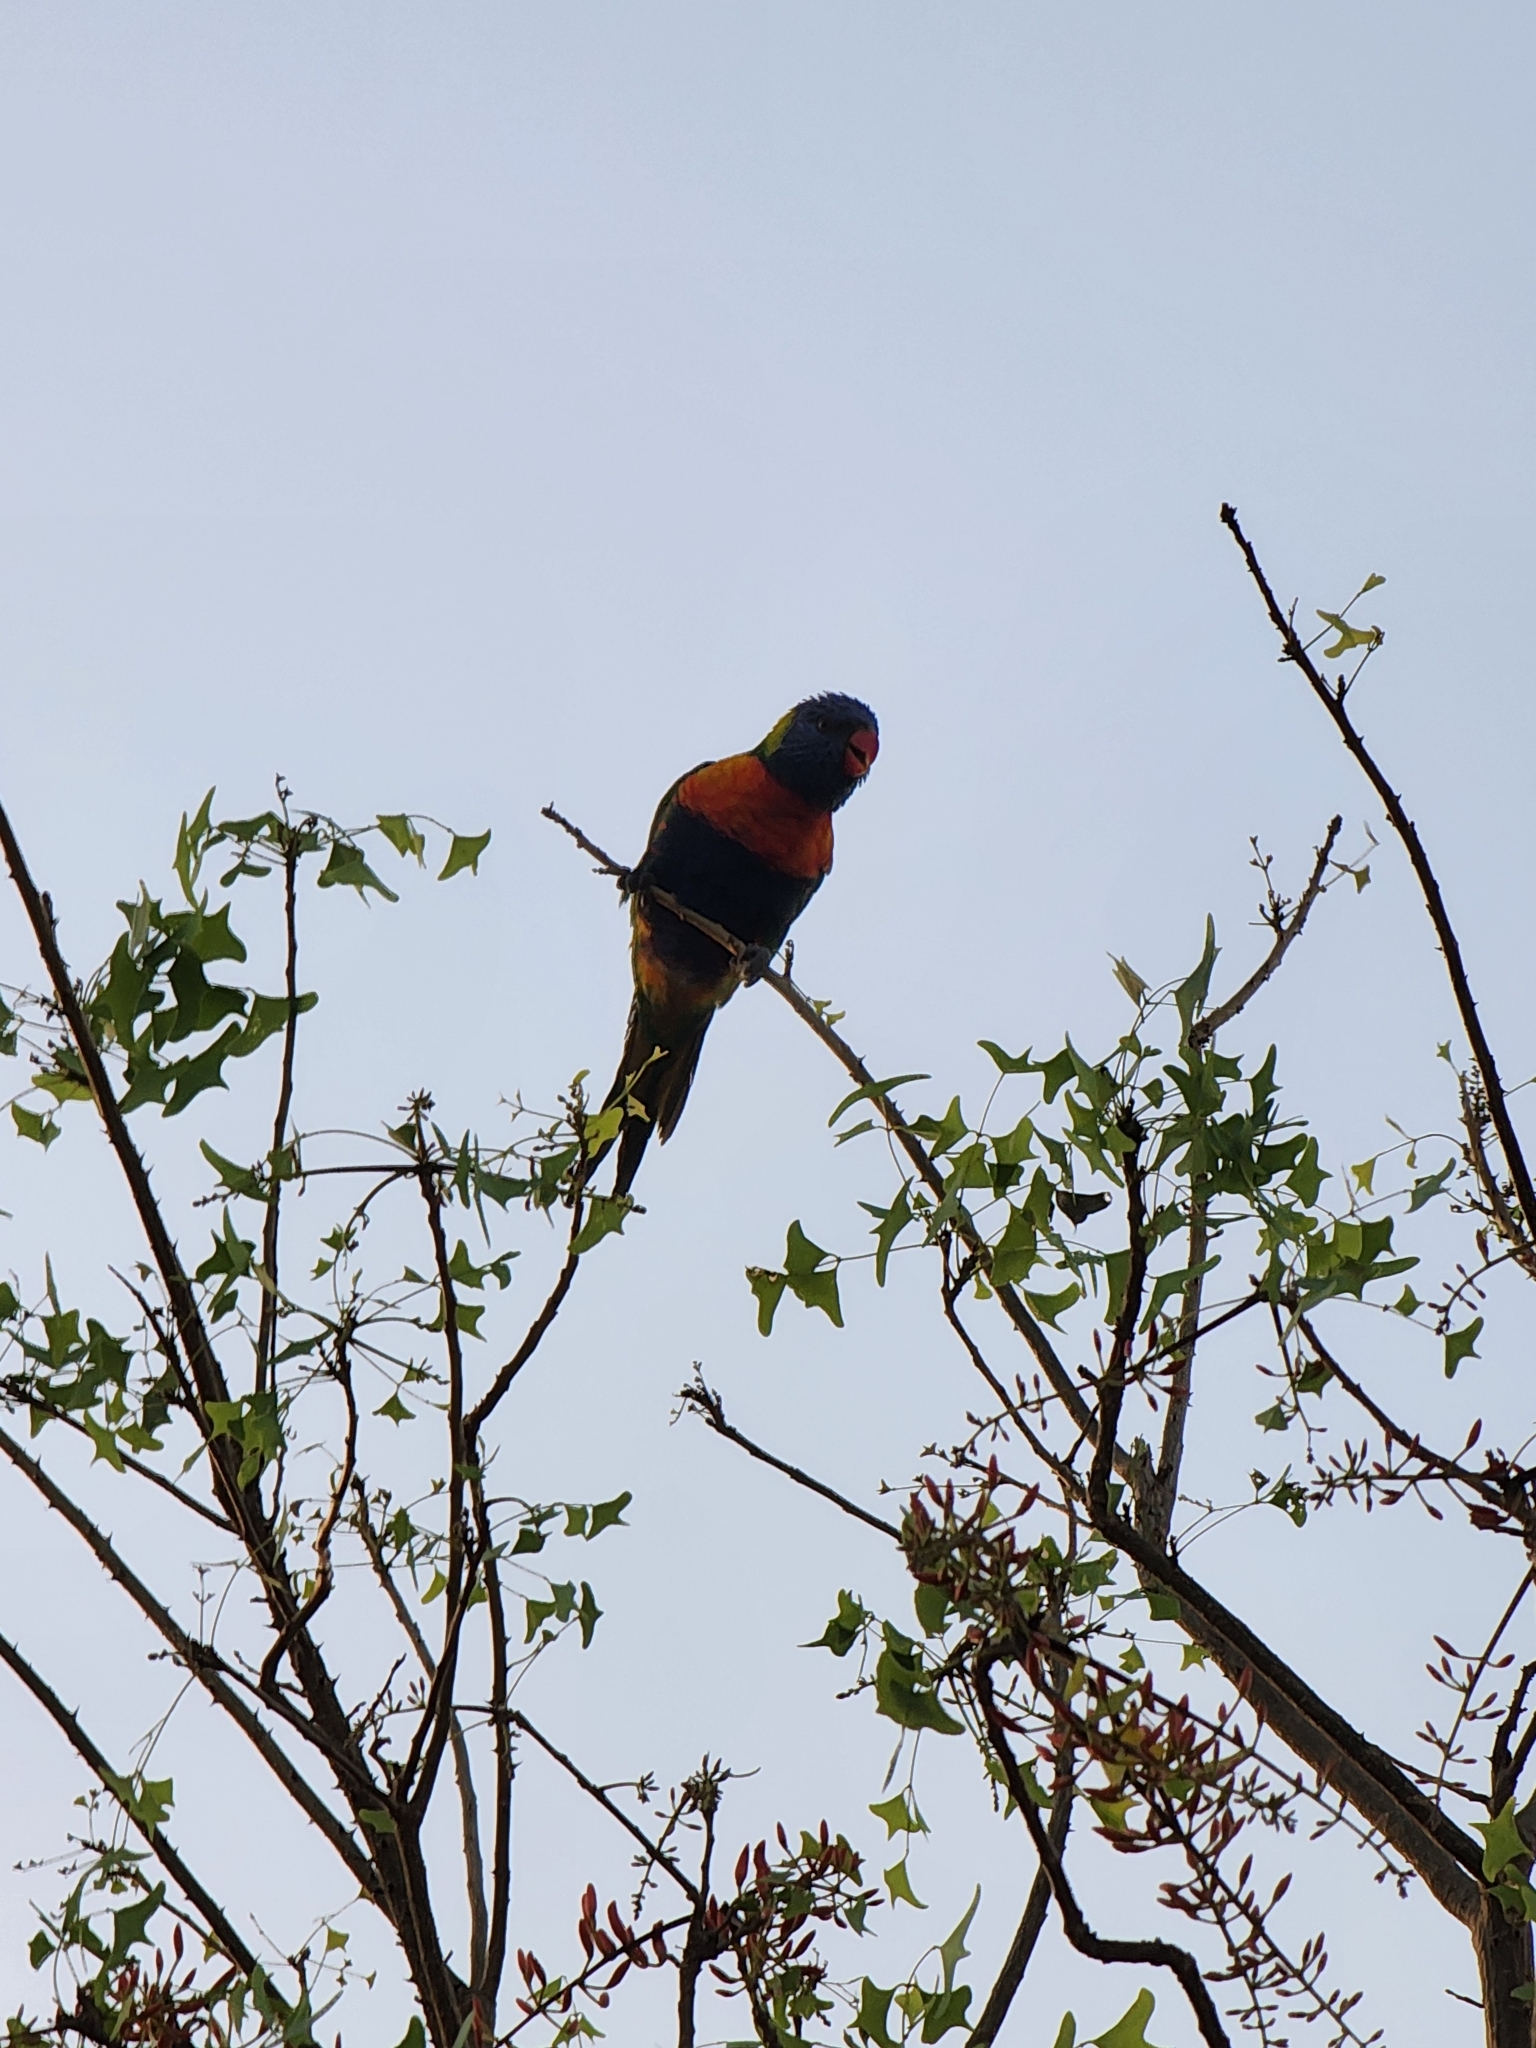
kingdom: Animalia
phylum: Chordata
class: Aves
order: Psittaciformes
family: Psittacidae
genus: Trichoglossus
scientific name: Trichoglossus haematodus
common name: Coconut lorikeet
